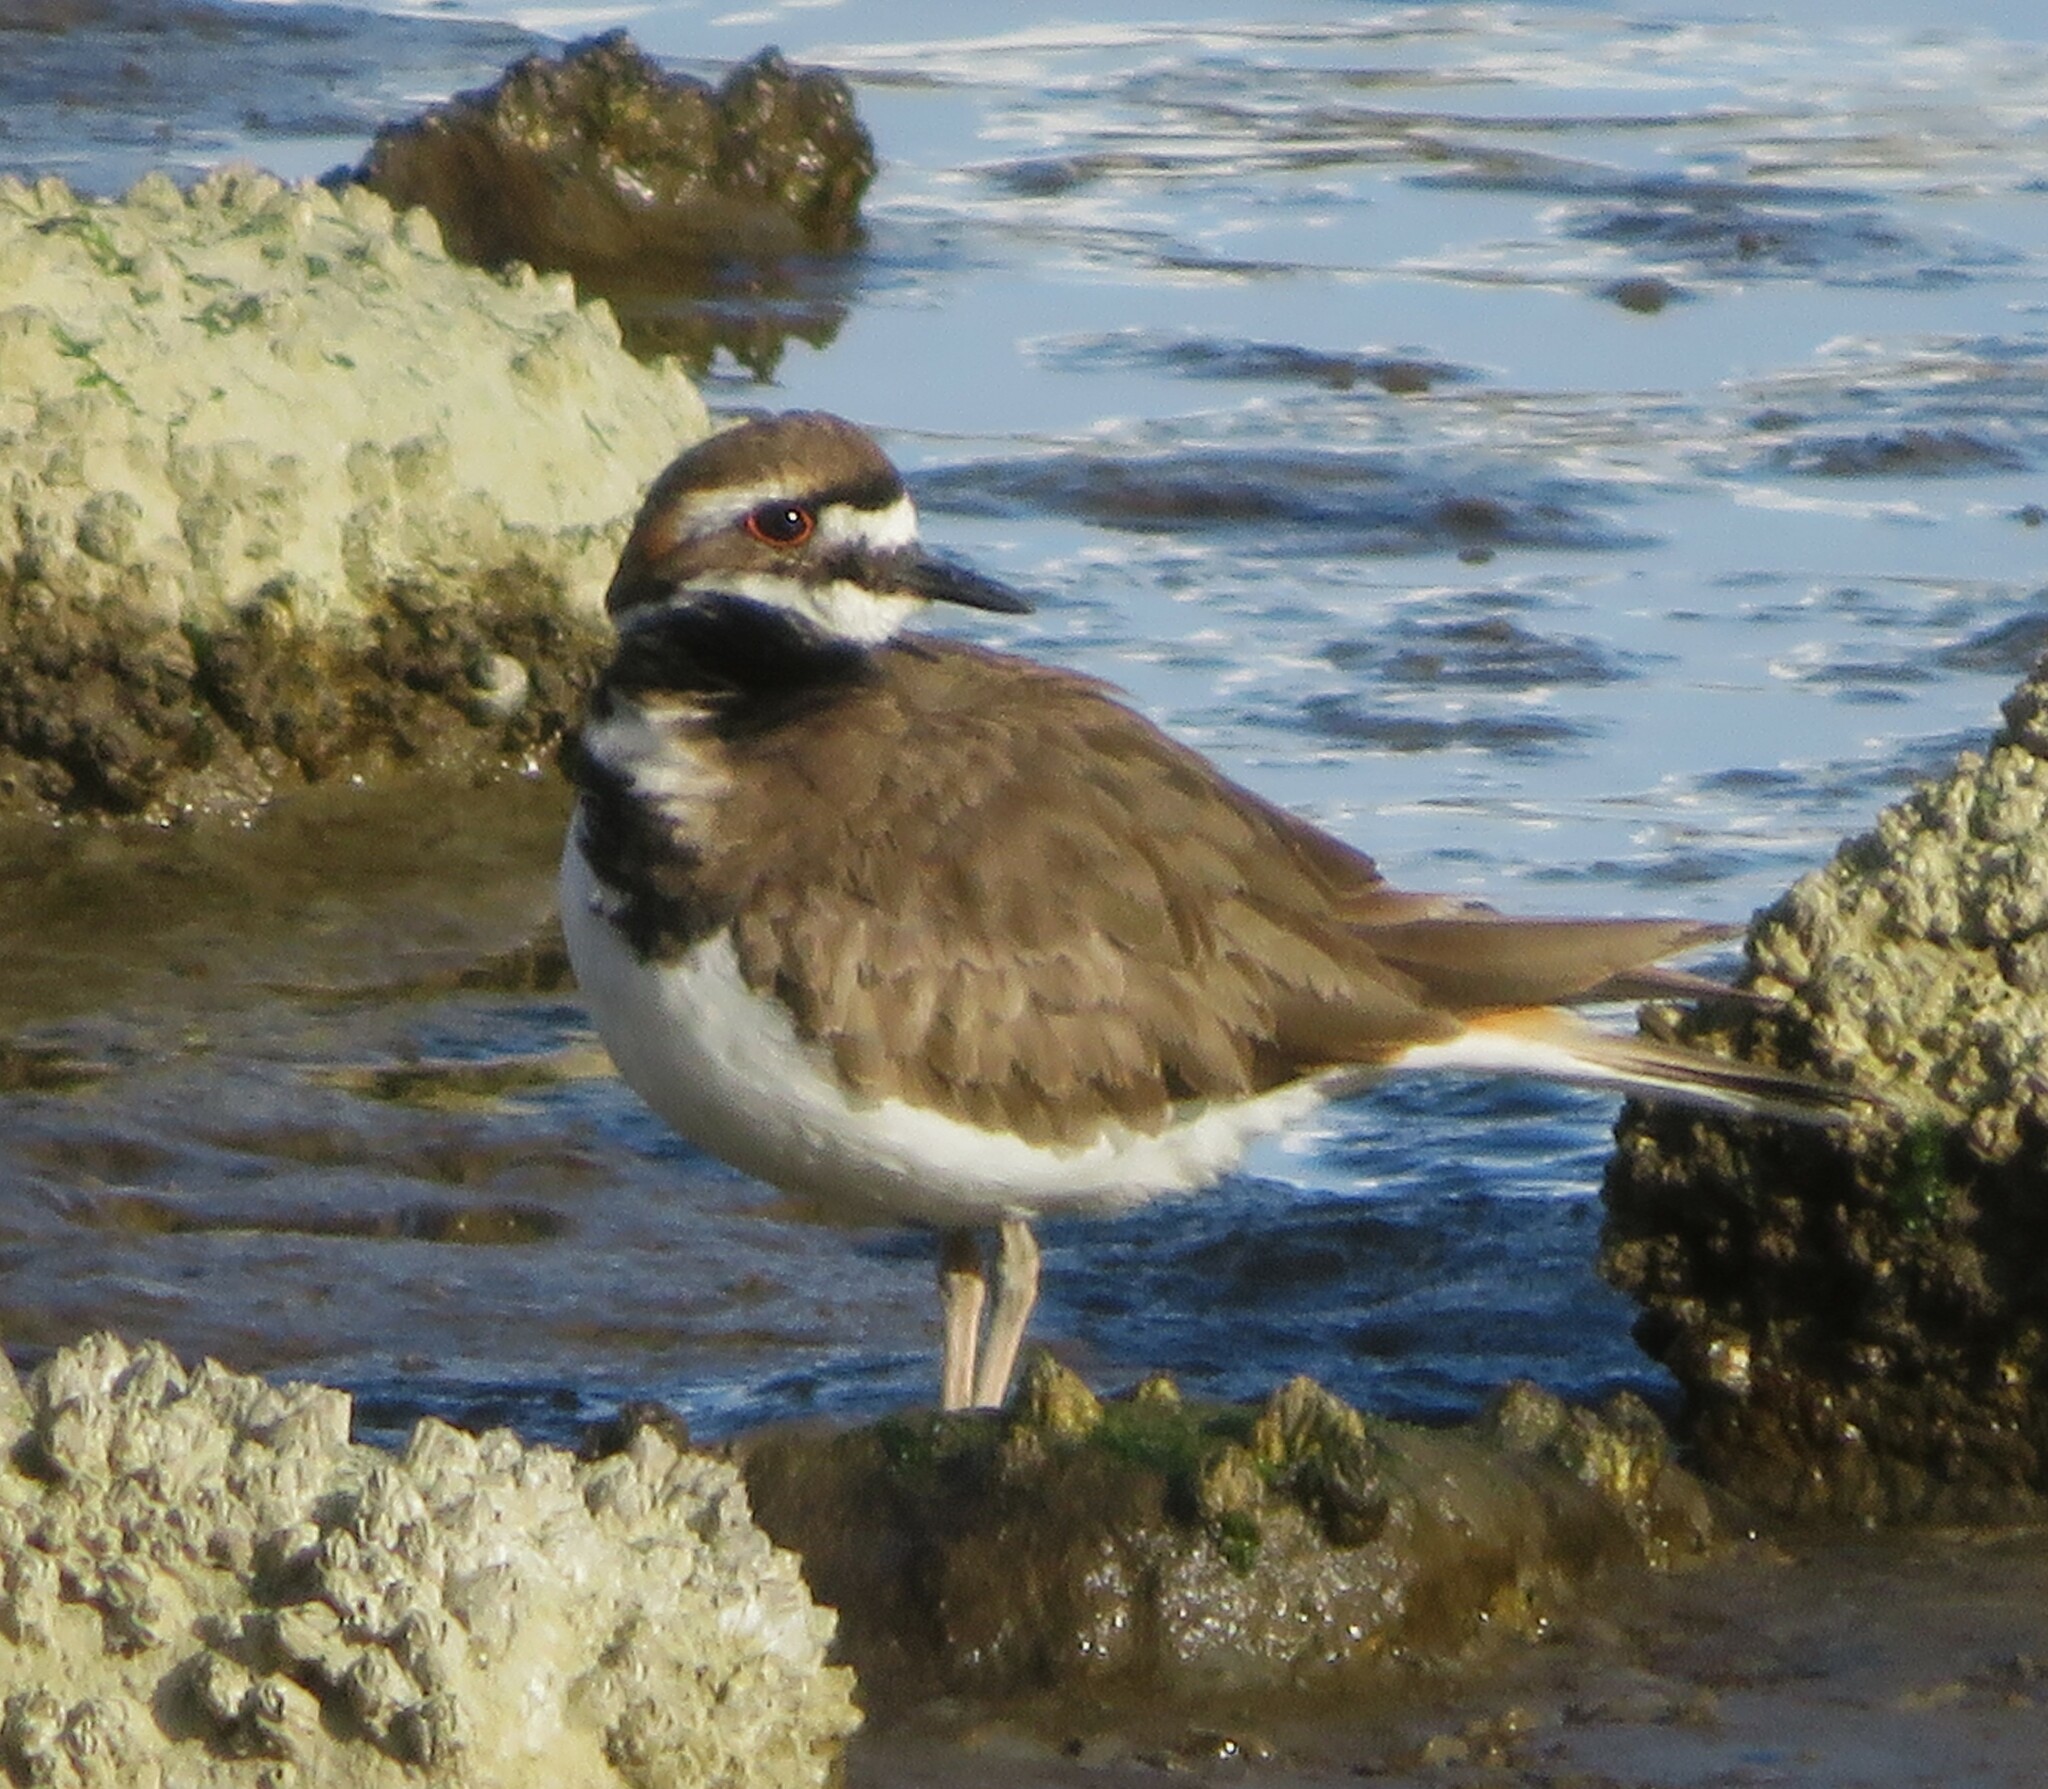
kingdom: Animalia
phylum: Chordata
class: Aves
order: Charadriiformes
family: Charadriidae
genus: Charadrius
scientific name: Charadrius vociferus
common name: Killdeer
